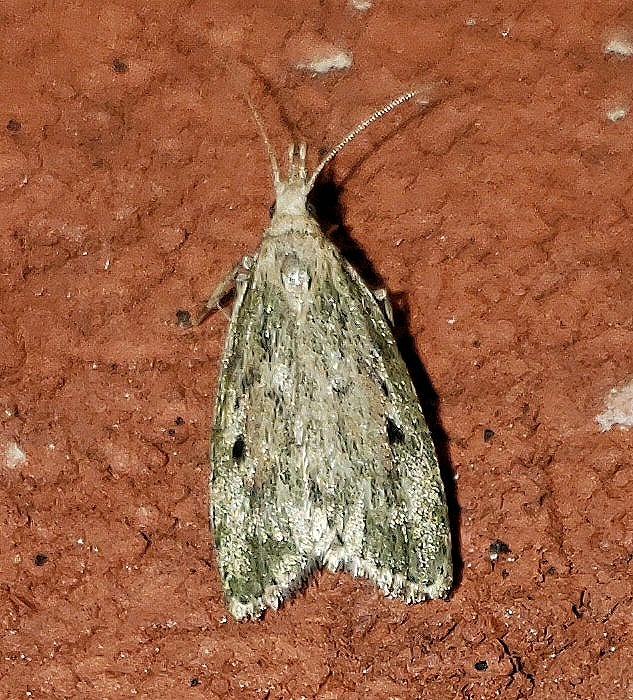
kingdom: Animalia
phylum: Arthropoda
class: Insecta
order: Lepidoptera
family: Pyralidae
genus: Aphomia
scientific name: Aphomia sociella
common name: Bee moth
